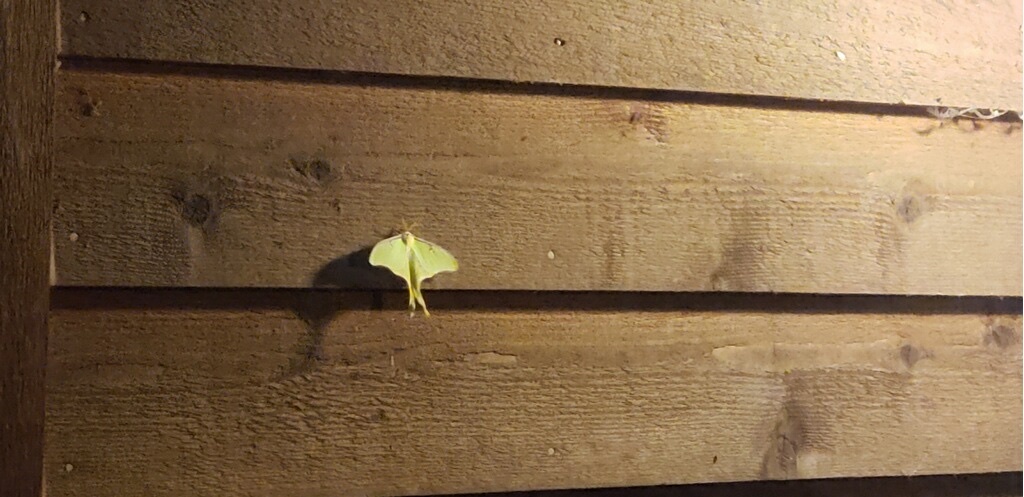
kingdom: Animalia
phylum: Arthropoda
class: Insecta
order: Lepidoptera
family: Saturniidae
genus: Actias
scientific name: Actias luna
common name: Luna moth
